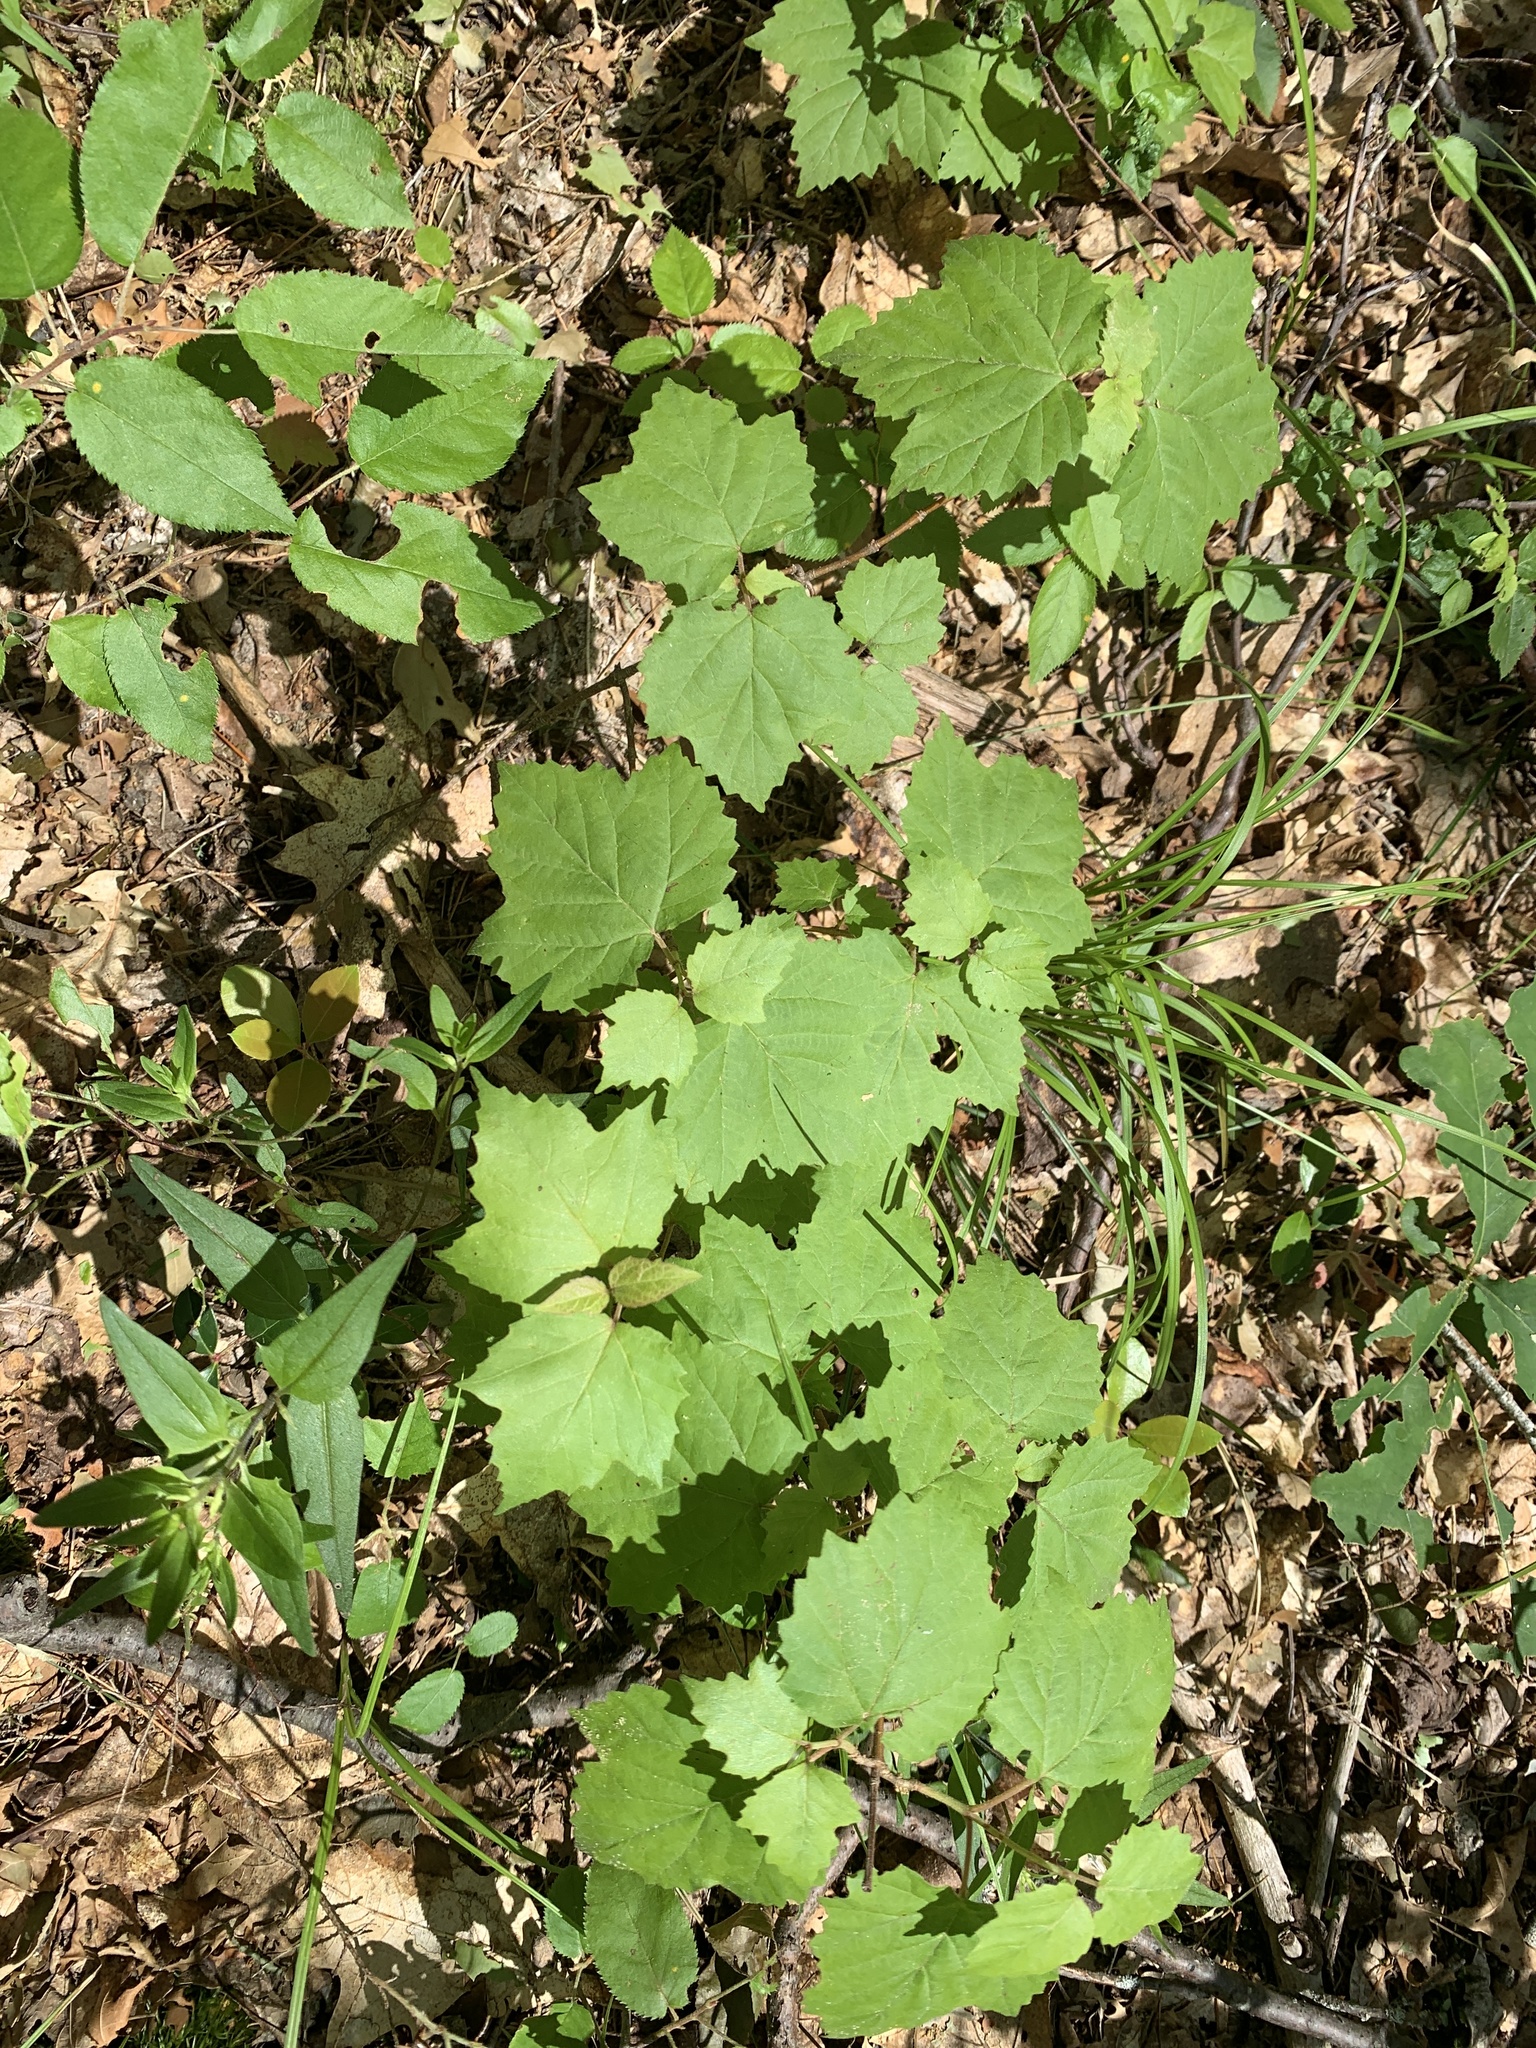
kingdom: Plantae
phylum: Tracheophyta
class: Magnoliopsida
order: Dipsacales
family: Viburnaceae
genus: Viburnum
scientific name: Viburnum acerifolium
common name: Dockmackie
